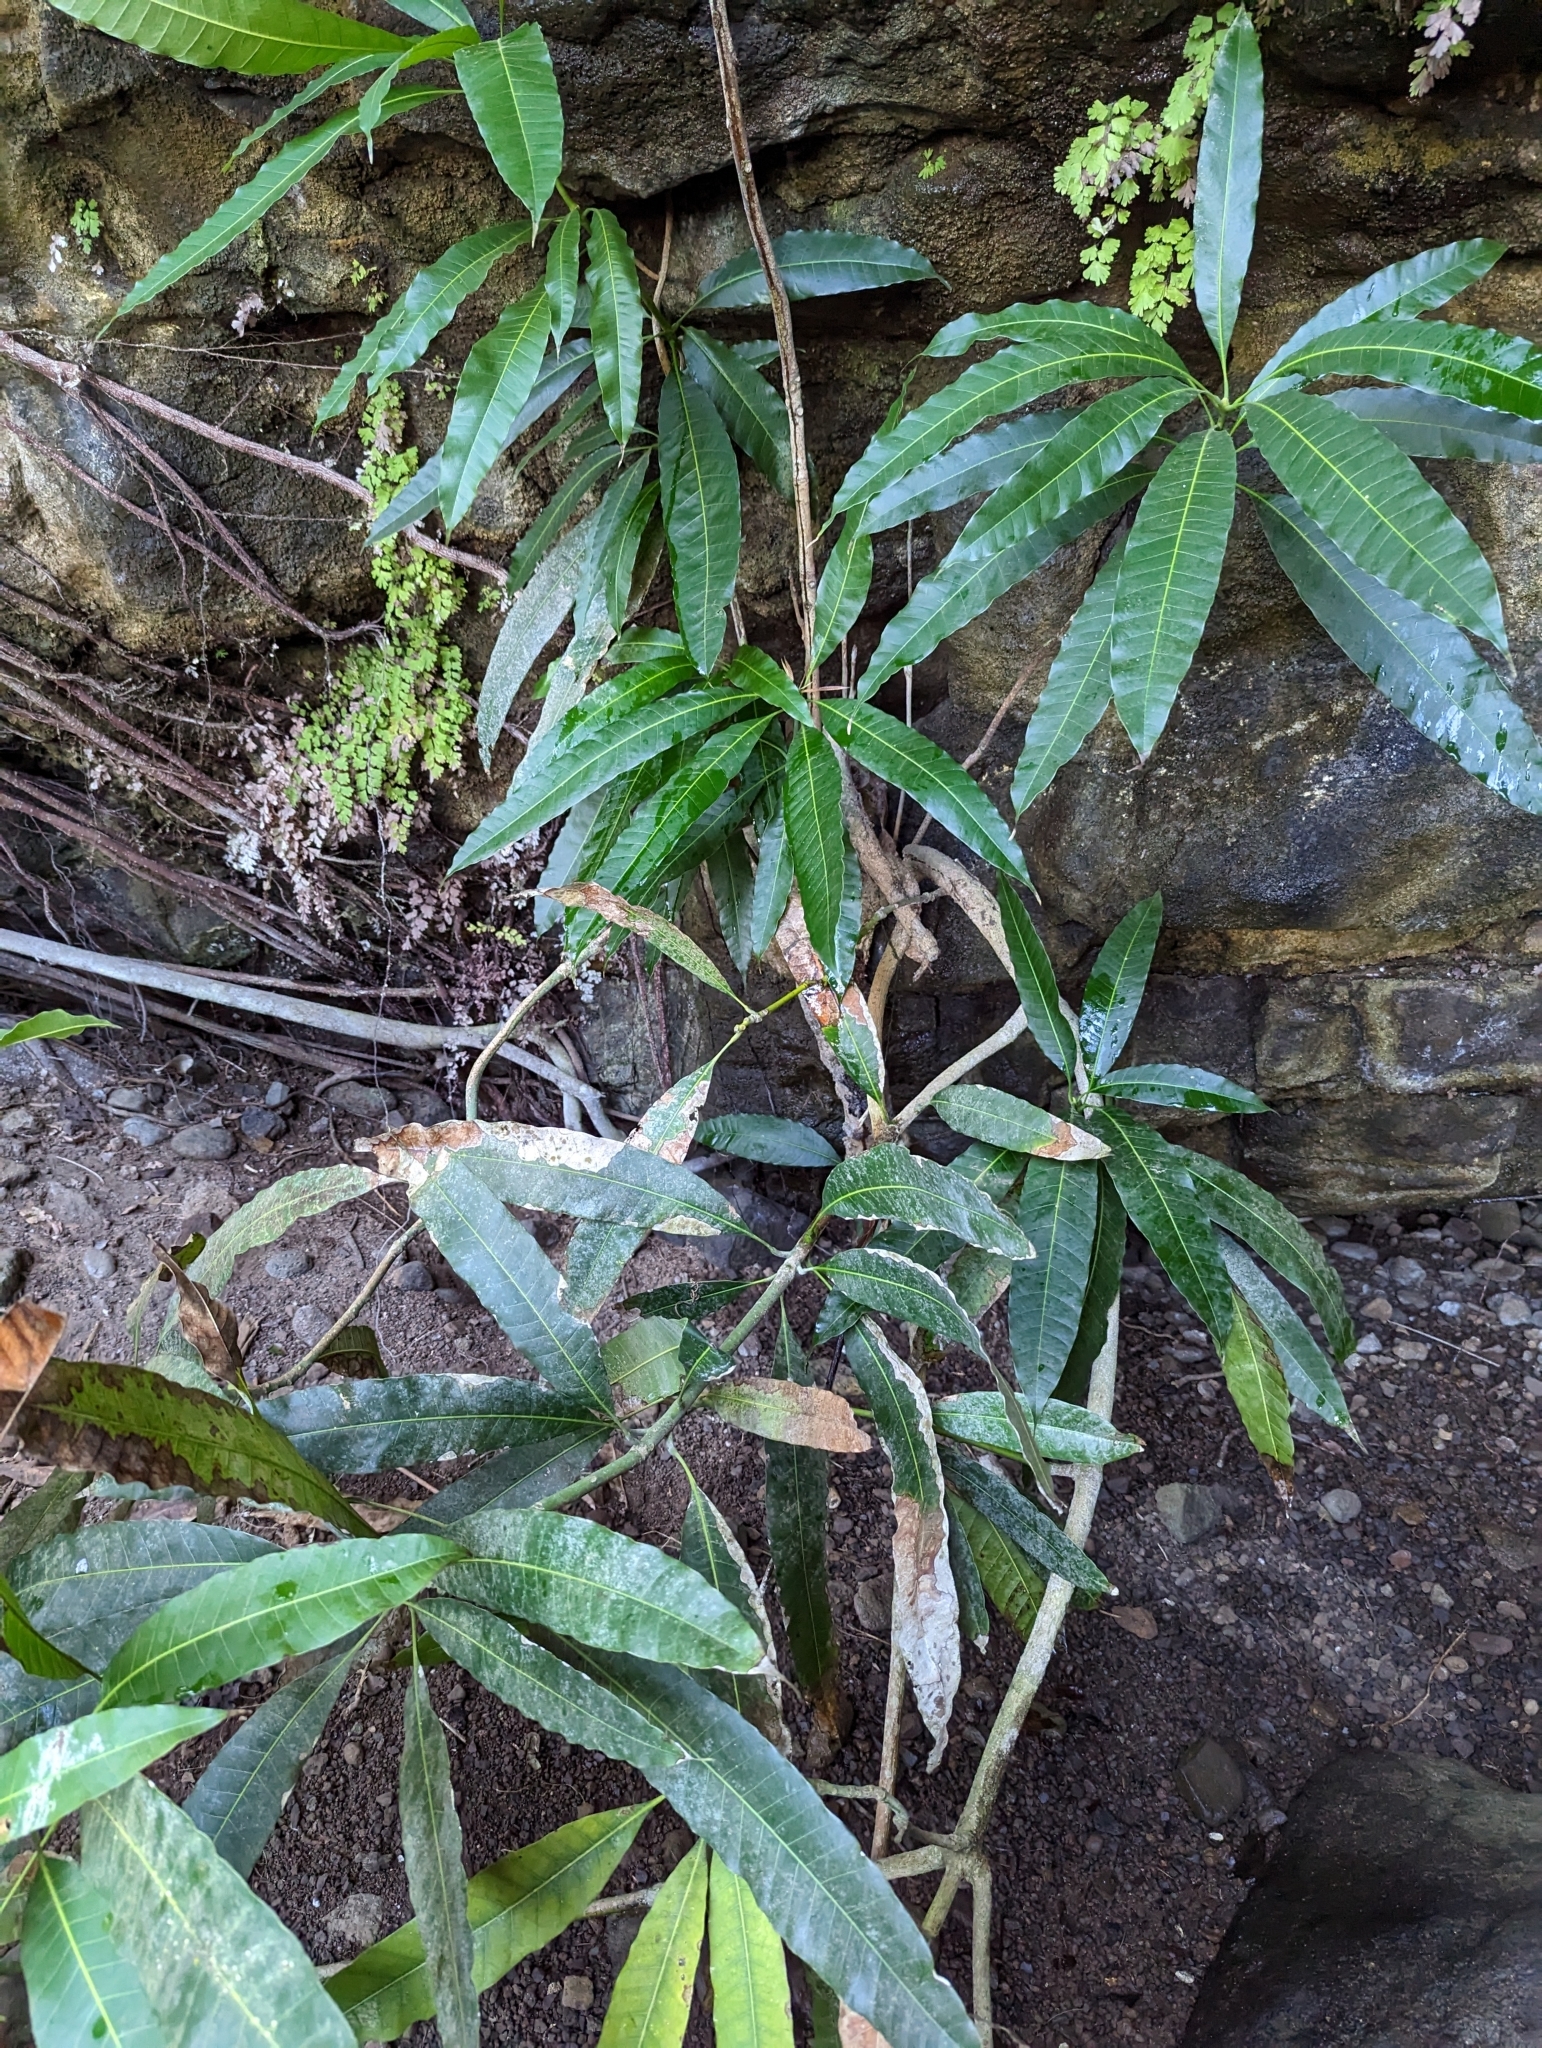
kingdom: Plantae
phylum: Tracheophyta
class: Magnoliopsida
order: Sapindales
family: Anacardiaceae
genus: Mangifera
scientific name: Mangifera indica
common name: Mango
